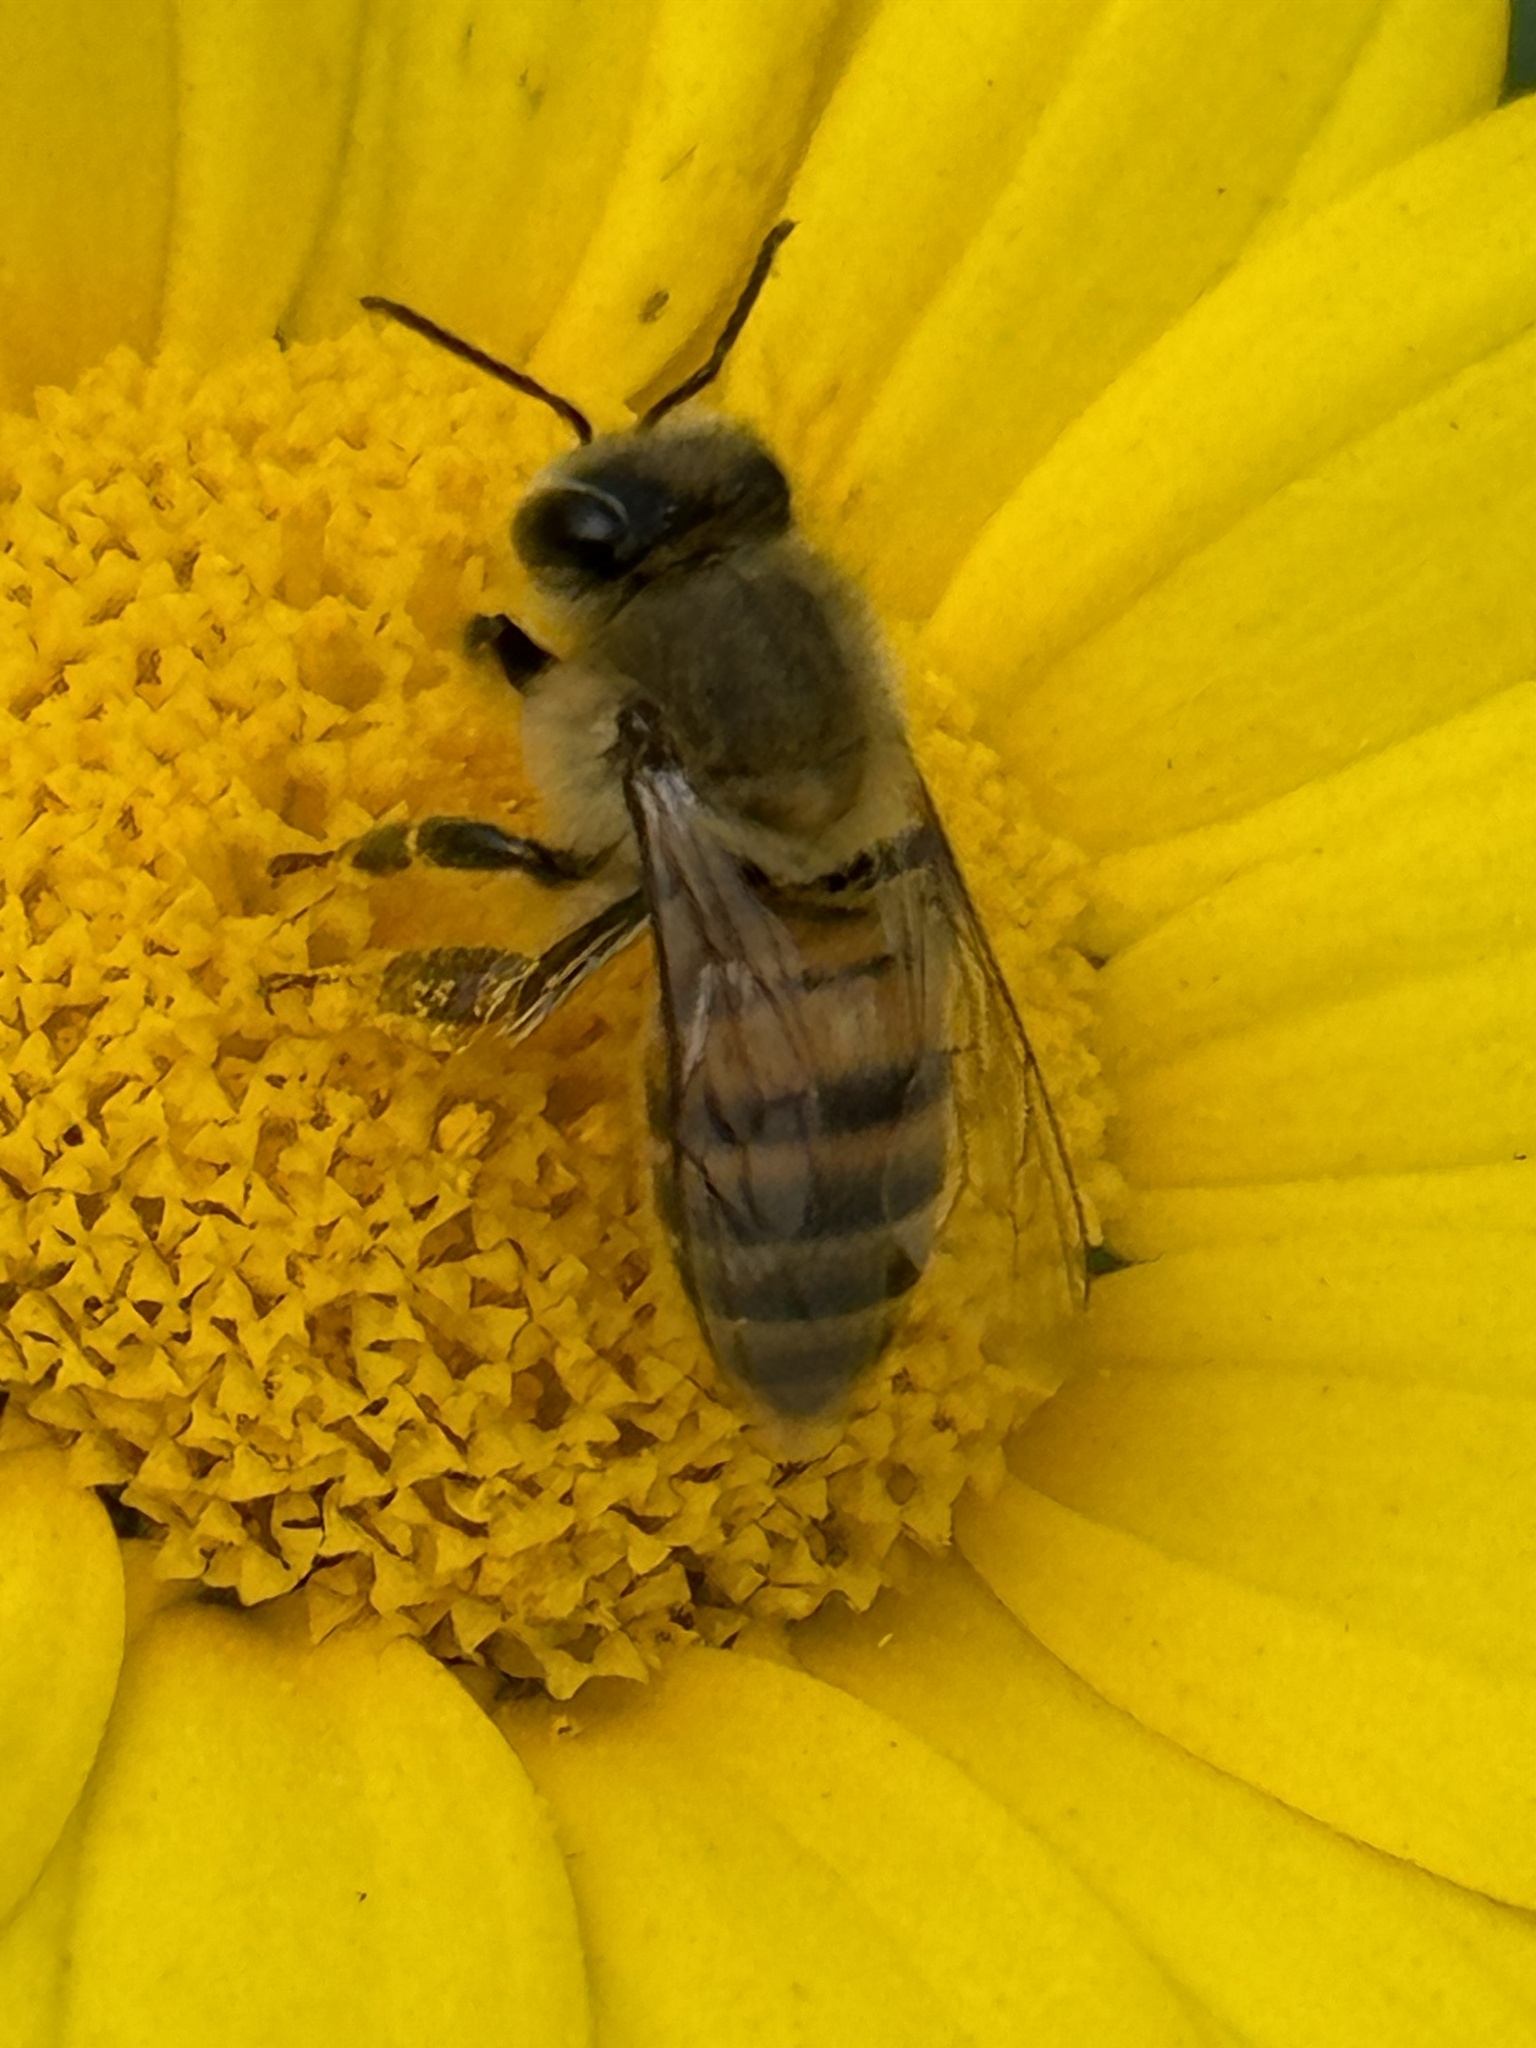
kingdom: Animalia
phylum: Arthropoda
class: Insecta
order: Hymenoptera
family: Apidae
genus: Apis
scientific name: Apis mellifera
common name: Honey bee
